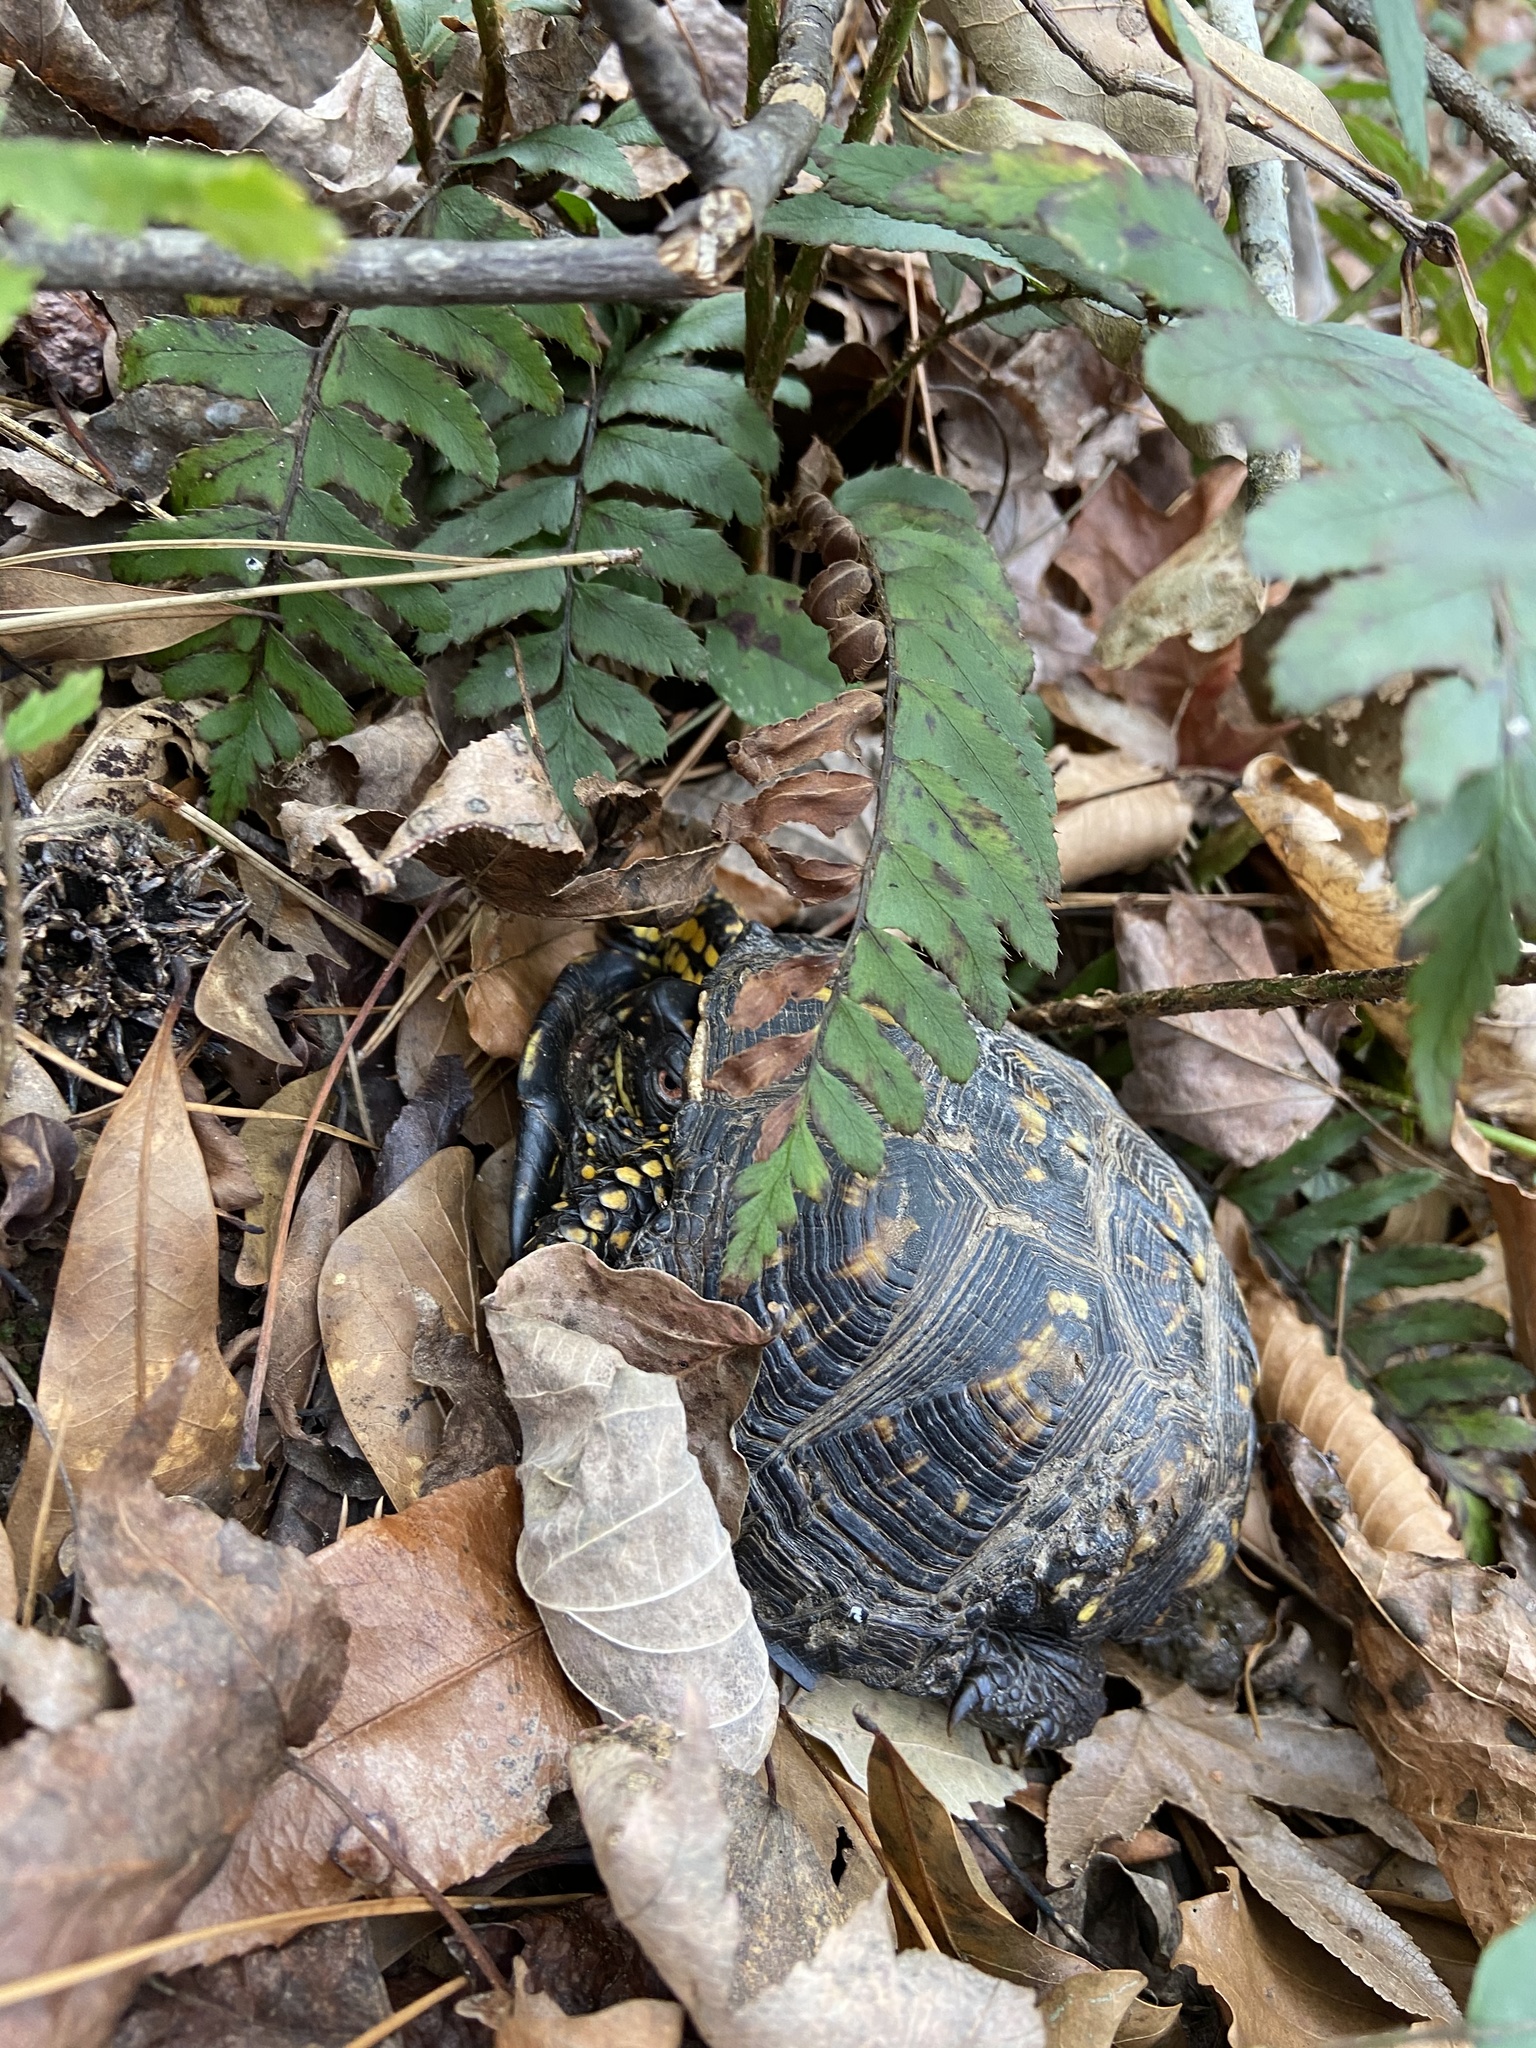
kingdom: Animalia
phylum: Chordata
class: Testudines
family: Emydidae
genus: Terrapene
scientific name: Terrapene carolina
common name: Common box turtle
